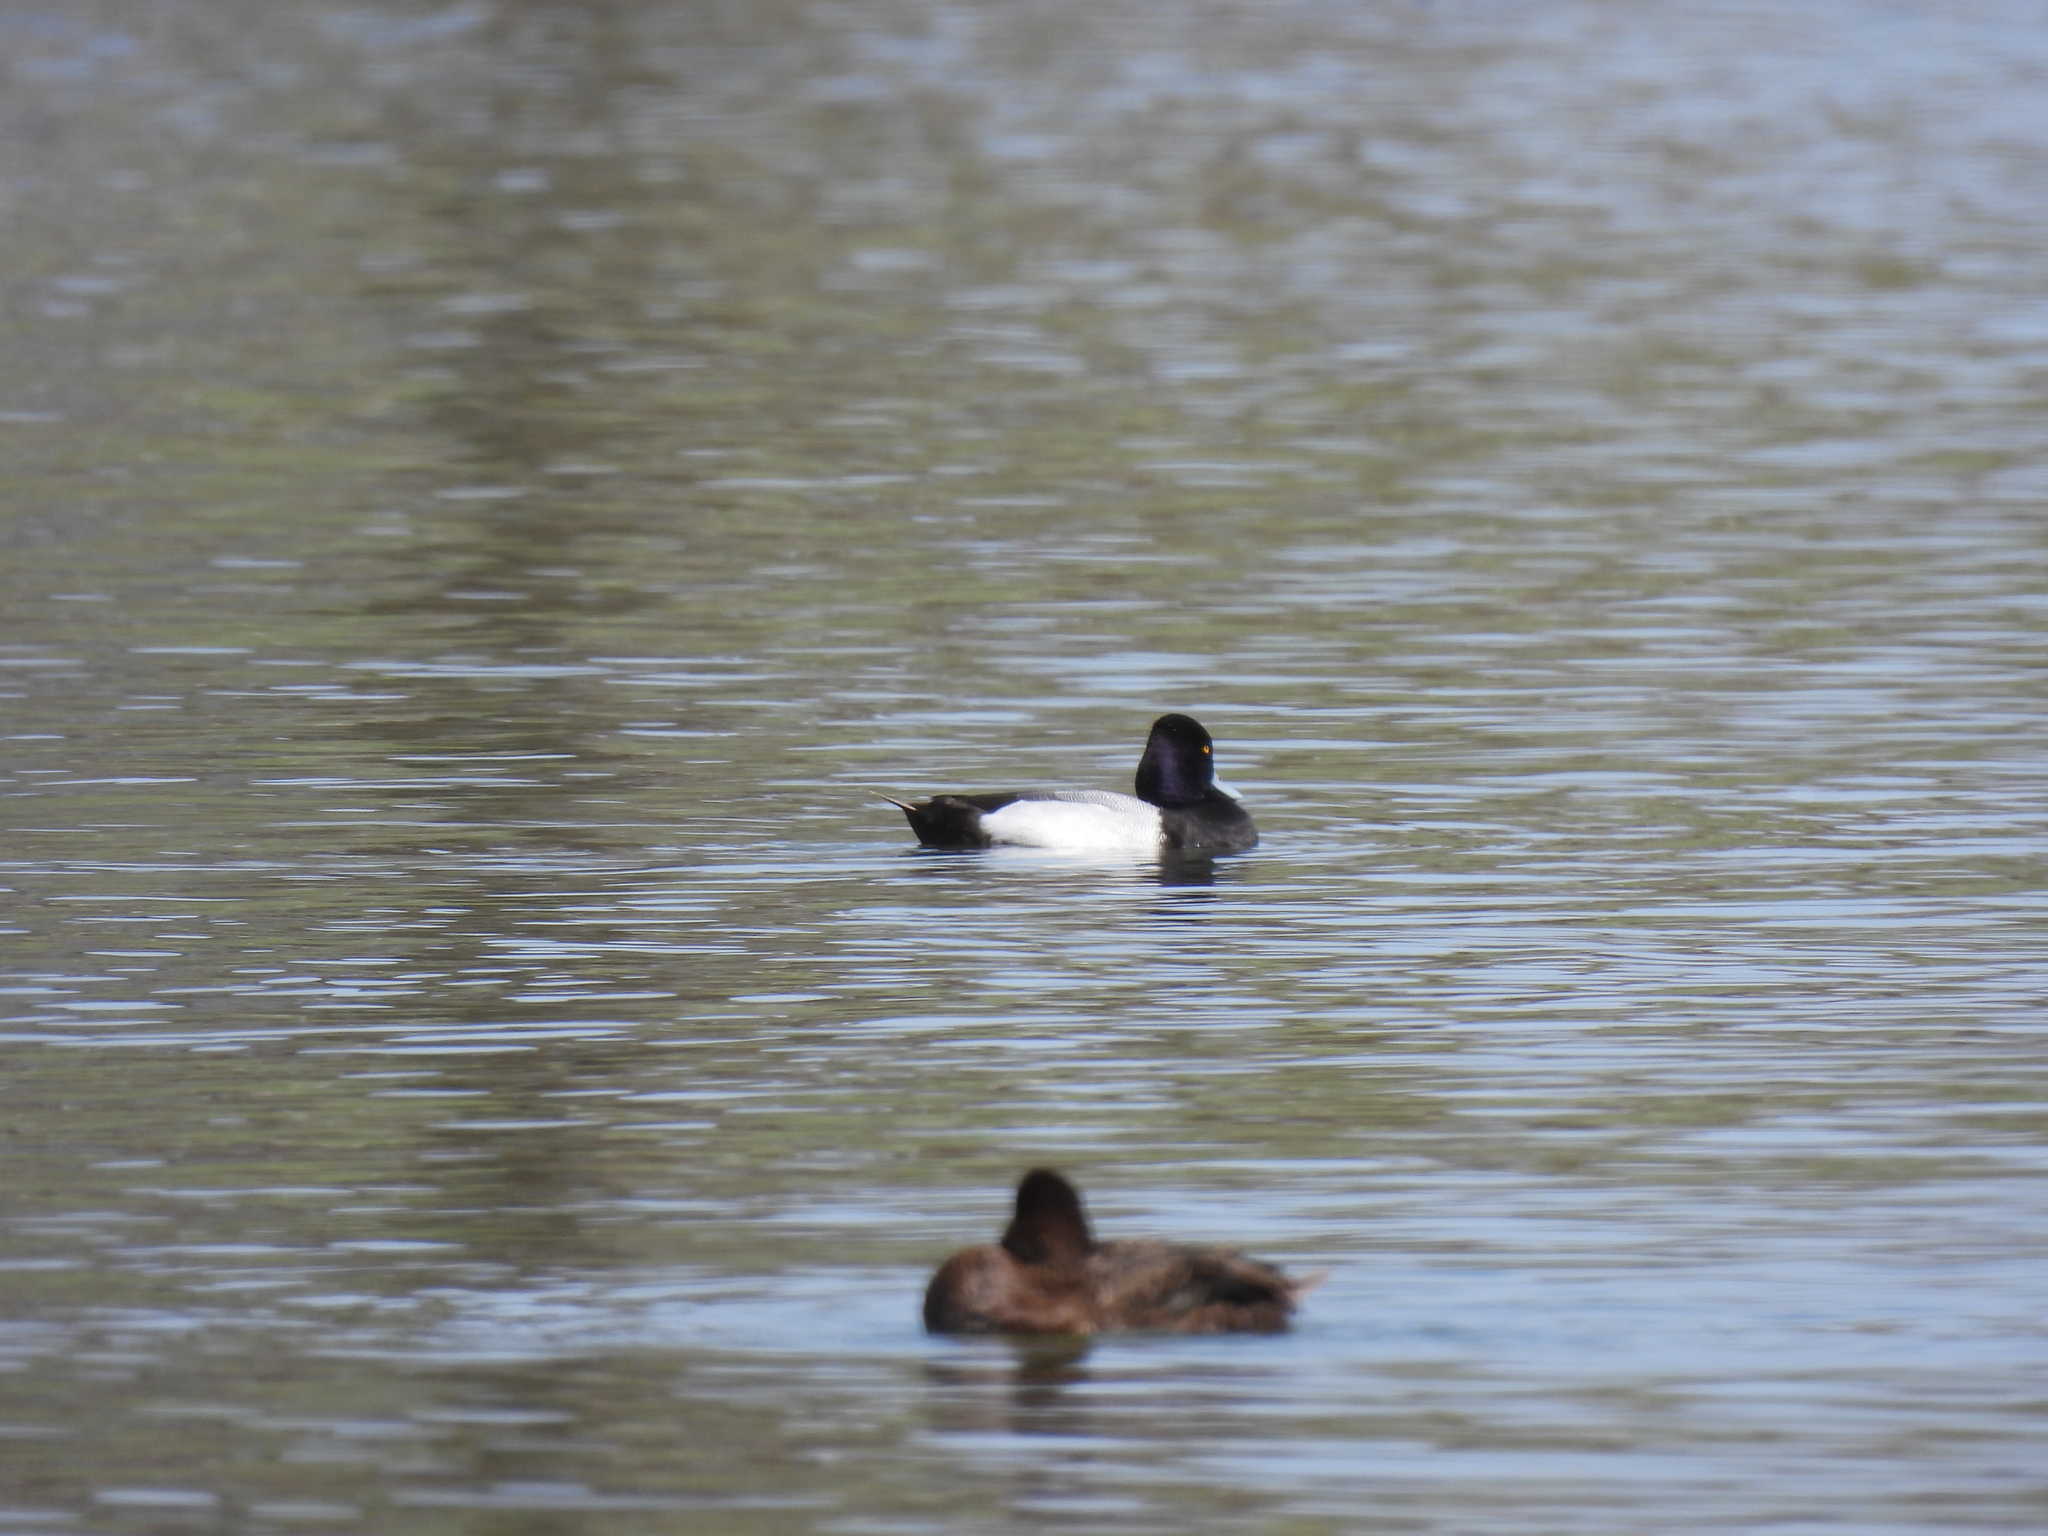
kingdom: Animalia
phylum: Chordata
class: Aves
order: Anseriformes
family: Anatidae
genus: Aythya
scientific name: Aythya affinis
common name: Lesser scaup
